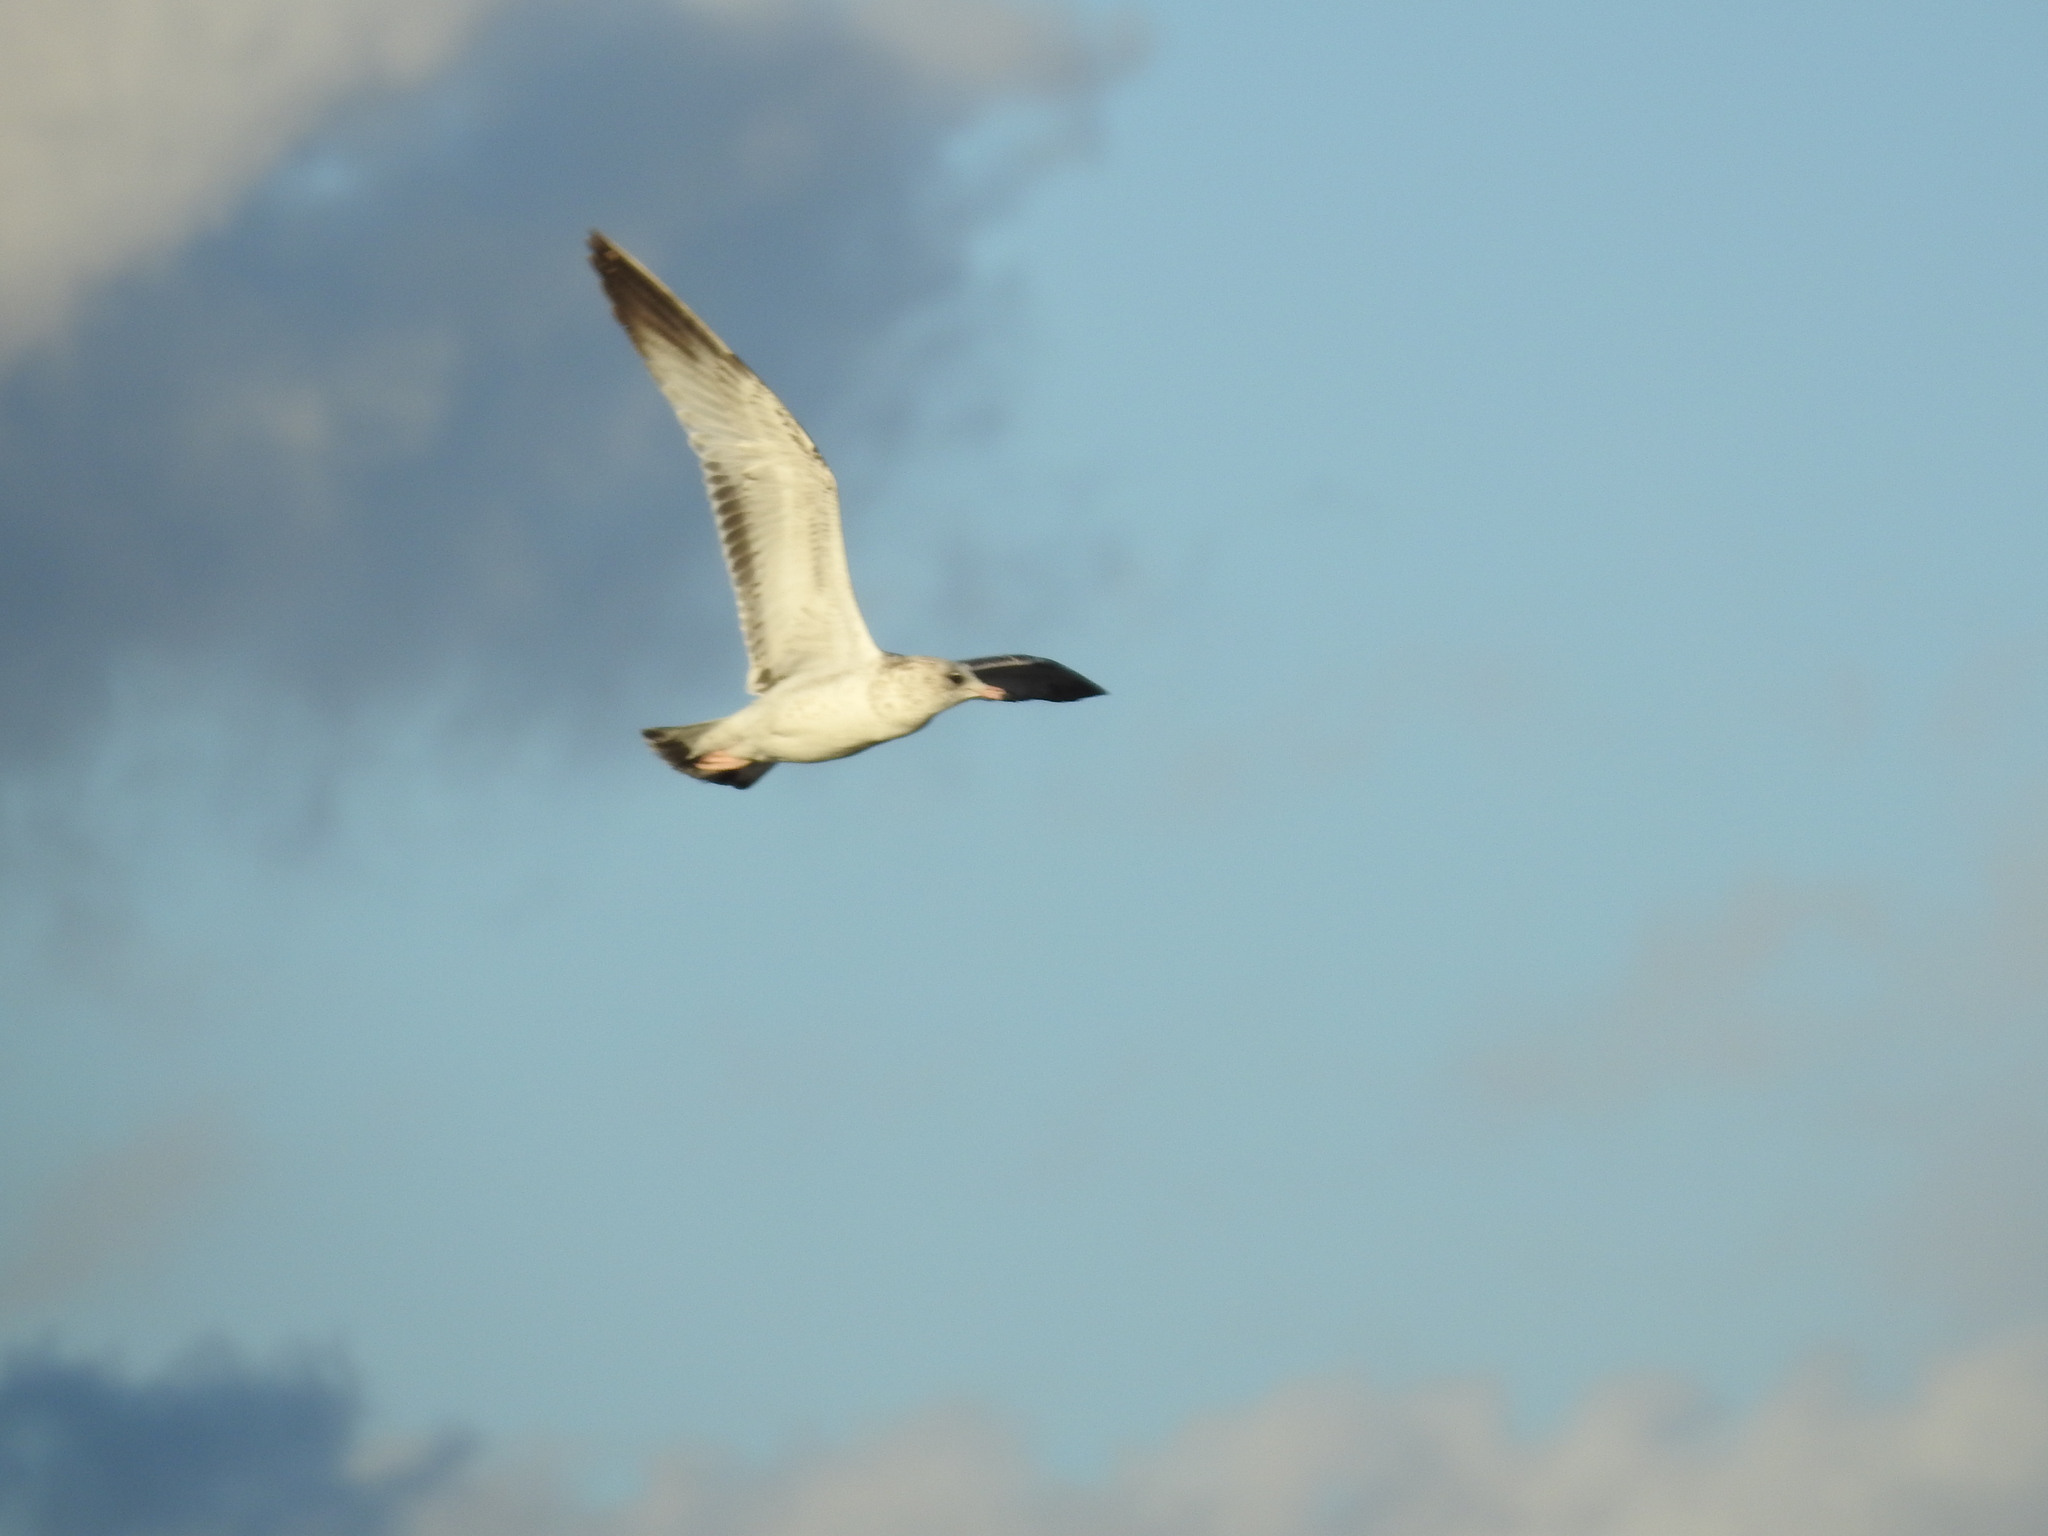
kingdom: Animalia
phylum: Chordata
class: Aves
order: Charadriiformes
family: Laridae
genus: Larus
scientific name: Larus delawarensis
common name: Ring-billed gull
